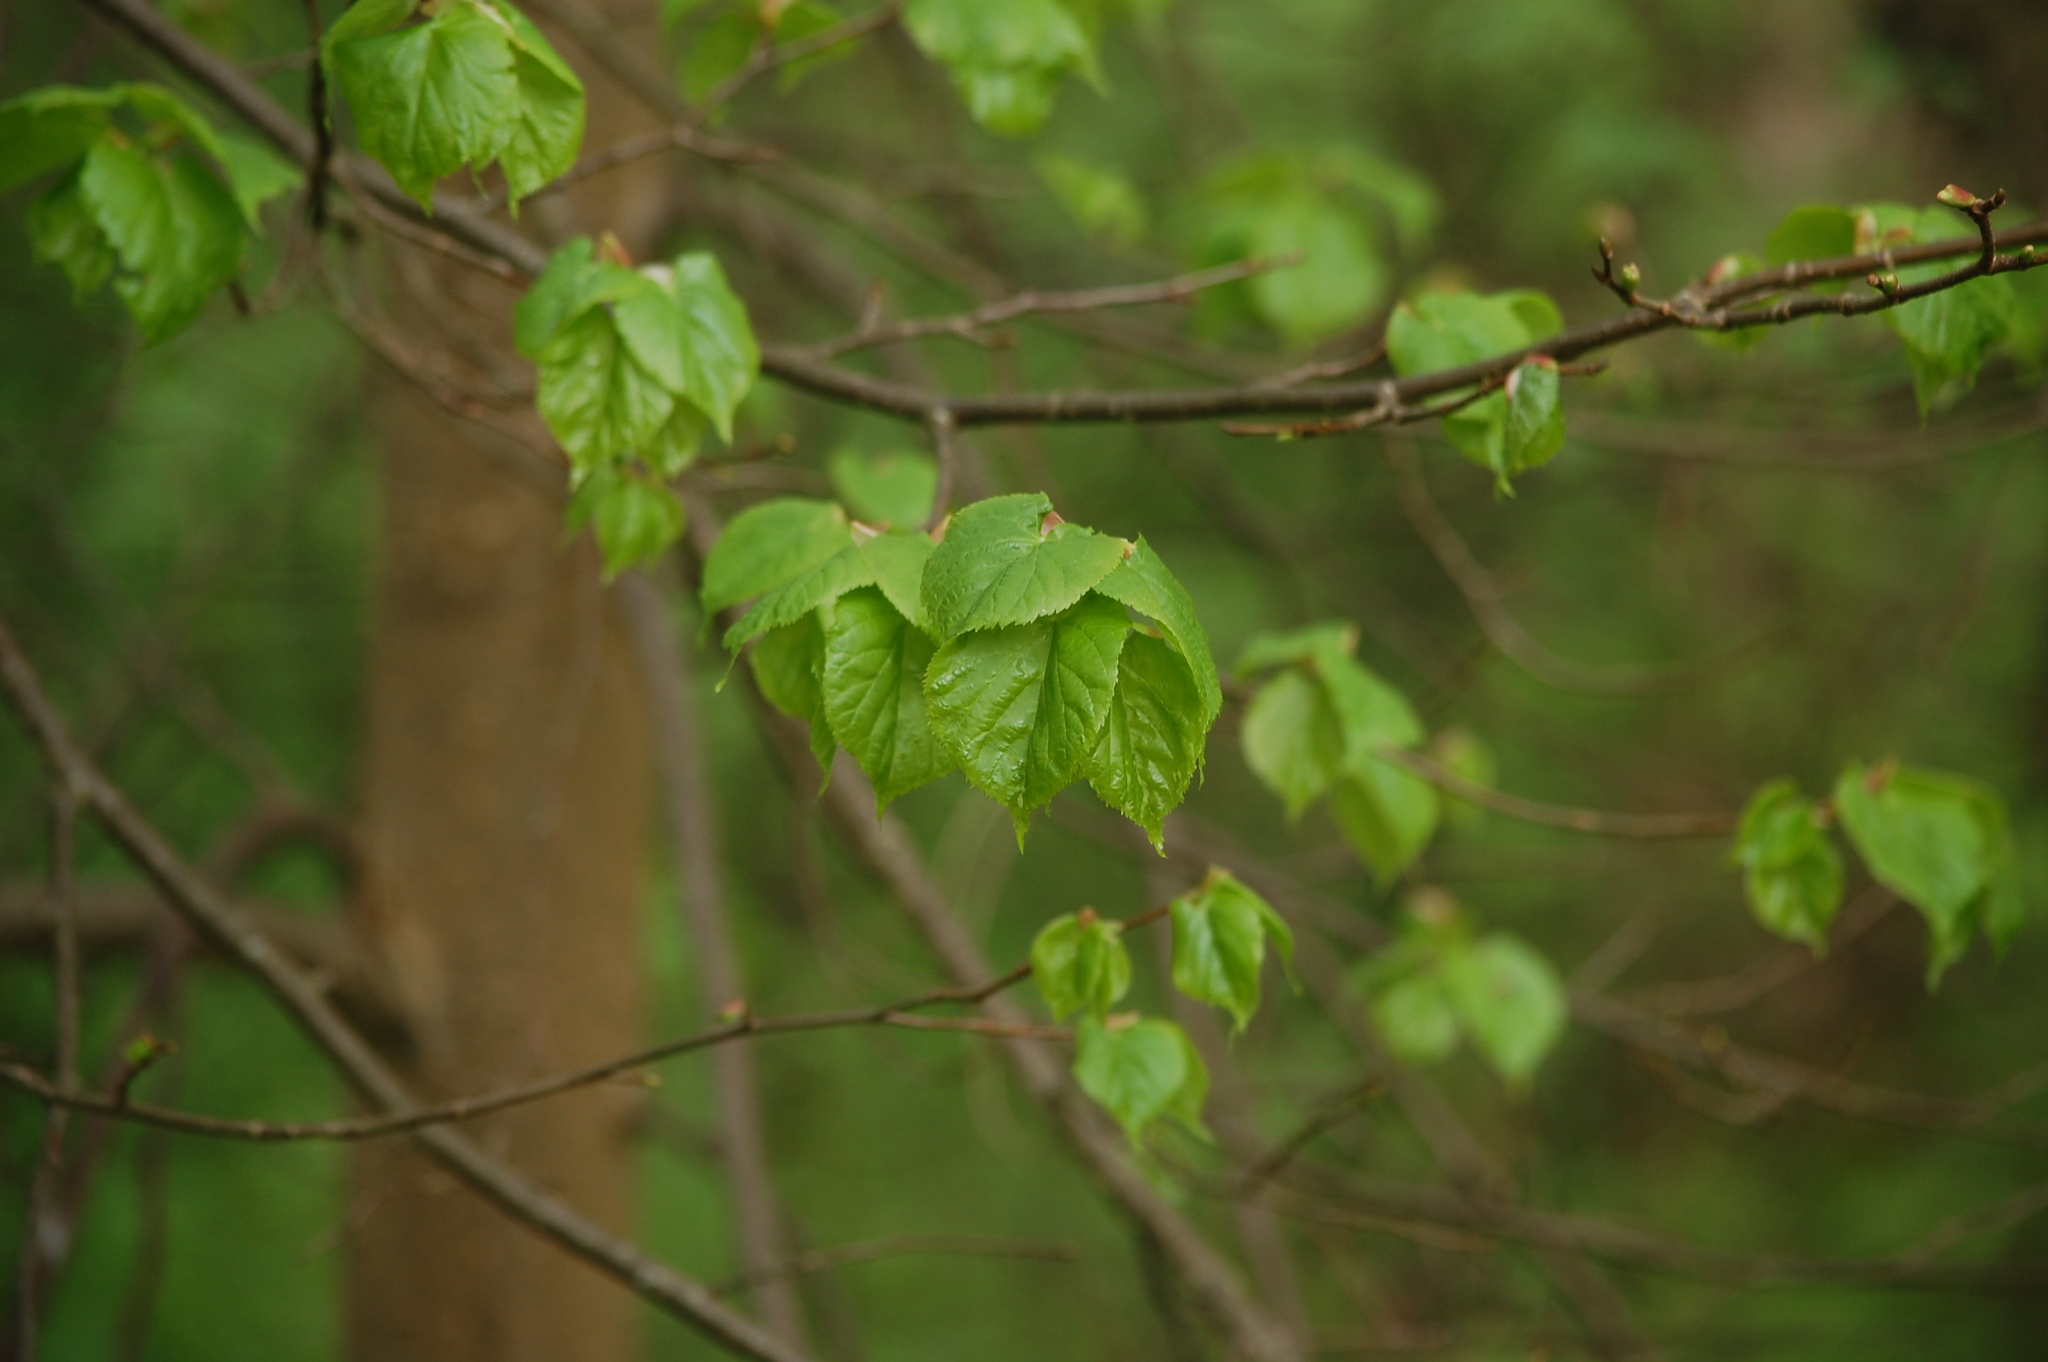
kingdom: Plantae
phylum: Tracheophyta
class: Magnoliopsida
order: Malvales
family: Malvaceae
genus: Tilia
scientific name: Tilia cordata
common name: Small-leaved lime
